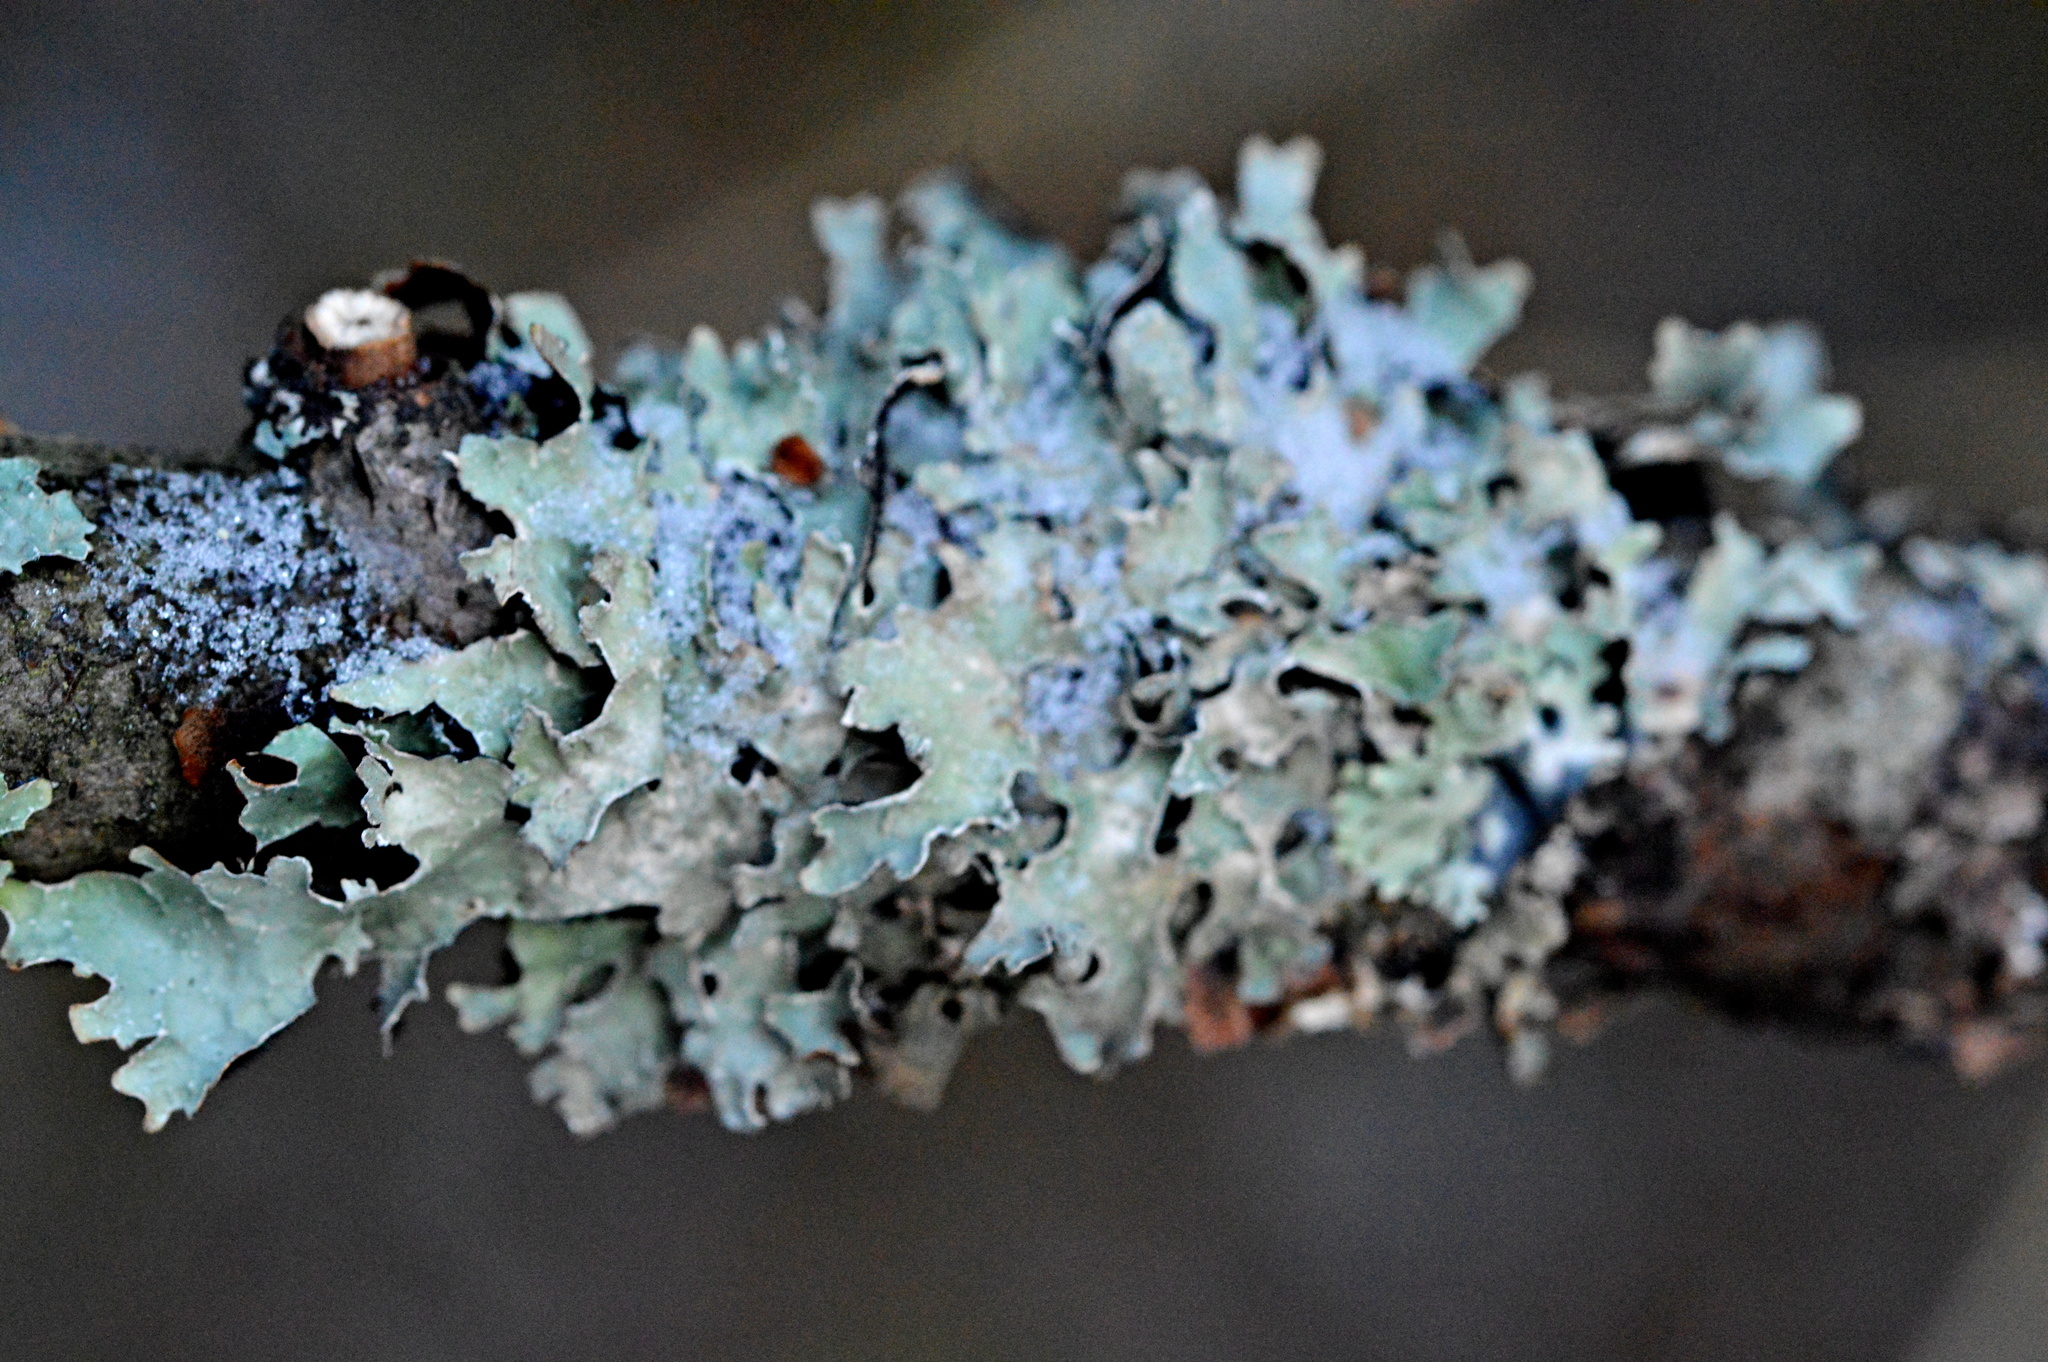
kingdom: Fungi
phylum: Ascomycota
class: Lecanoromycetes
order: Lecanorales
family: Parmeliaceae
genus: Parmelia
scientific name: Parmelia sulcata
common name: Netted shield lichen
